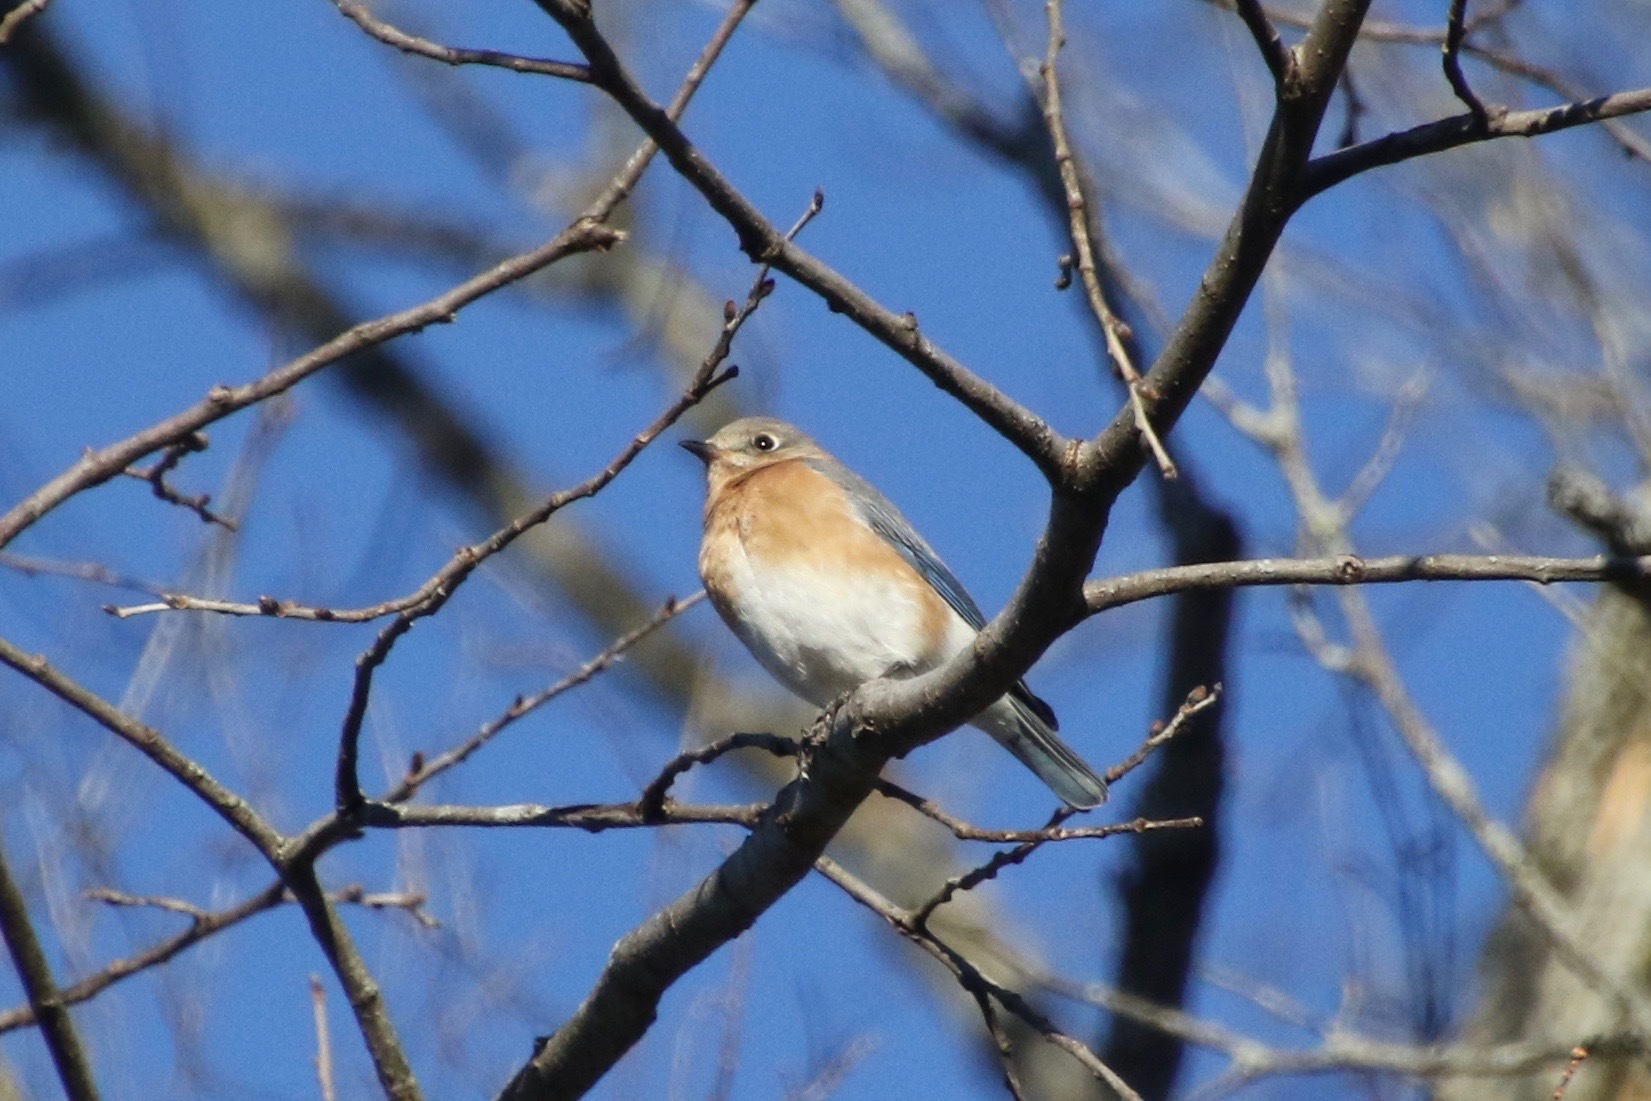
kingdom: Animalia
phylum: Chordata
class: Aves
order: Passeriformes
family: Turdidae
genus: Sialia
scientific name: Sialia sialis
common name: Eastern bluebird
